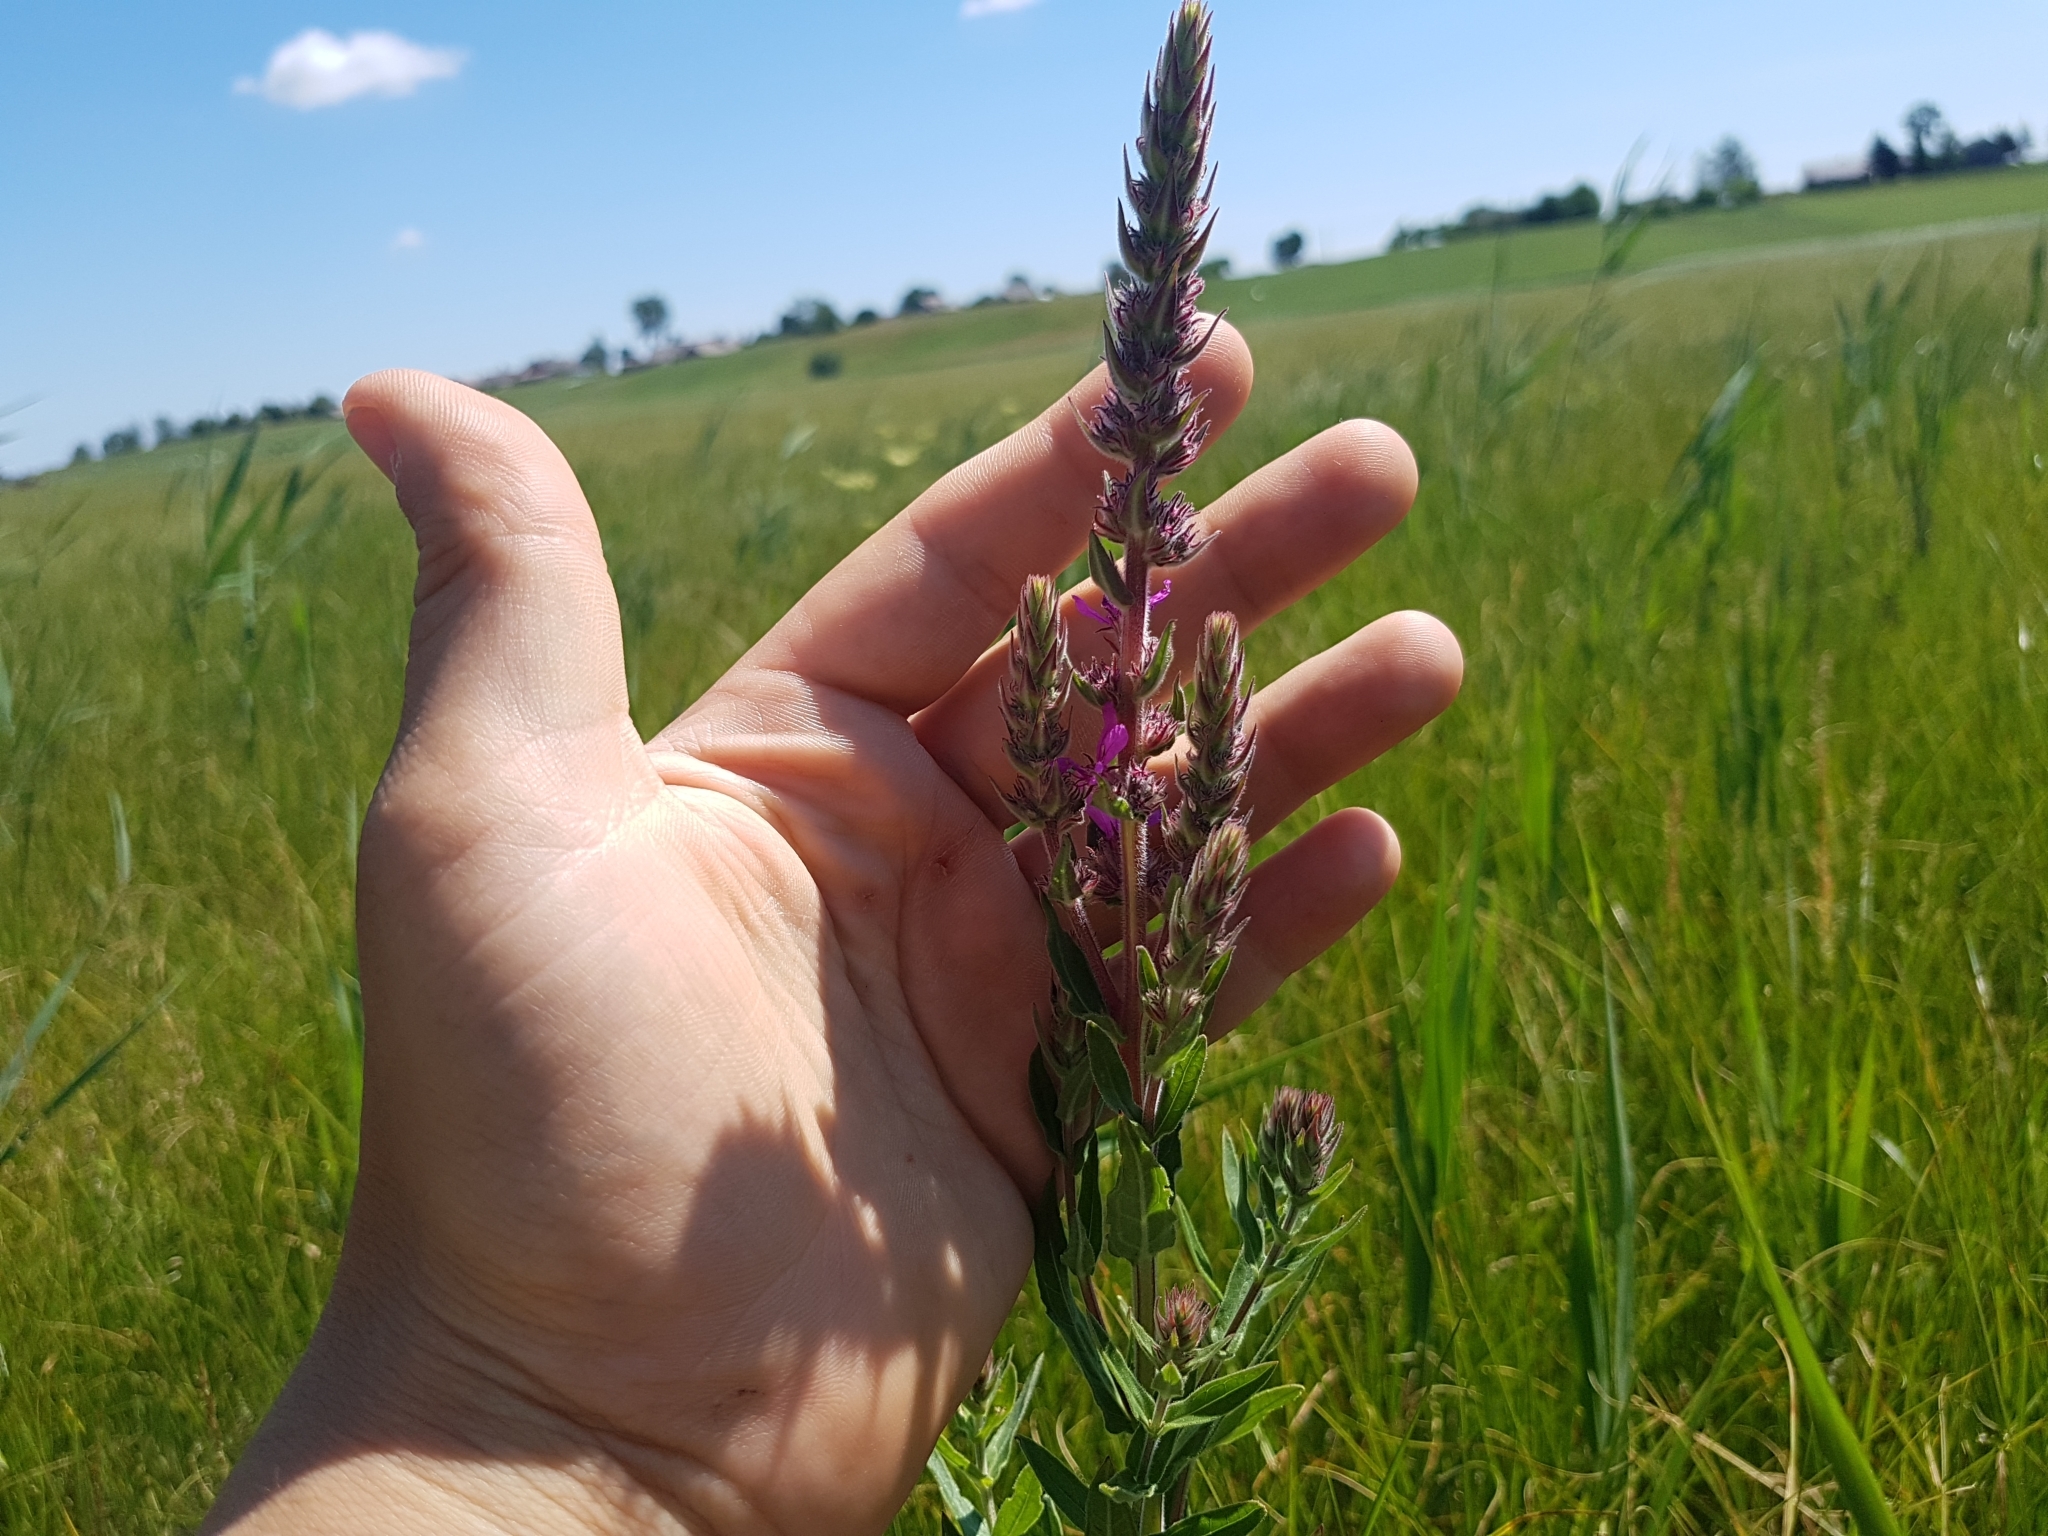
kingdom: Plantae
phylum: Tracheophyta
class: Magnoliopsida
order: Myrtales
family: Lythraceae
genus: Lythrum
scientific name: Lythrum salicaria
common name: Purple loosestrife
